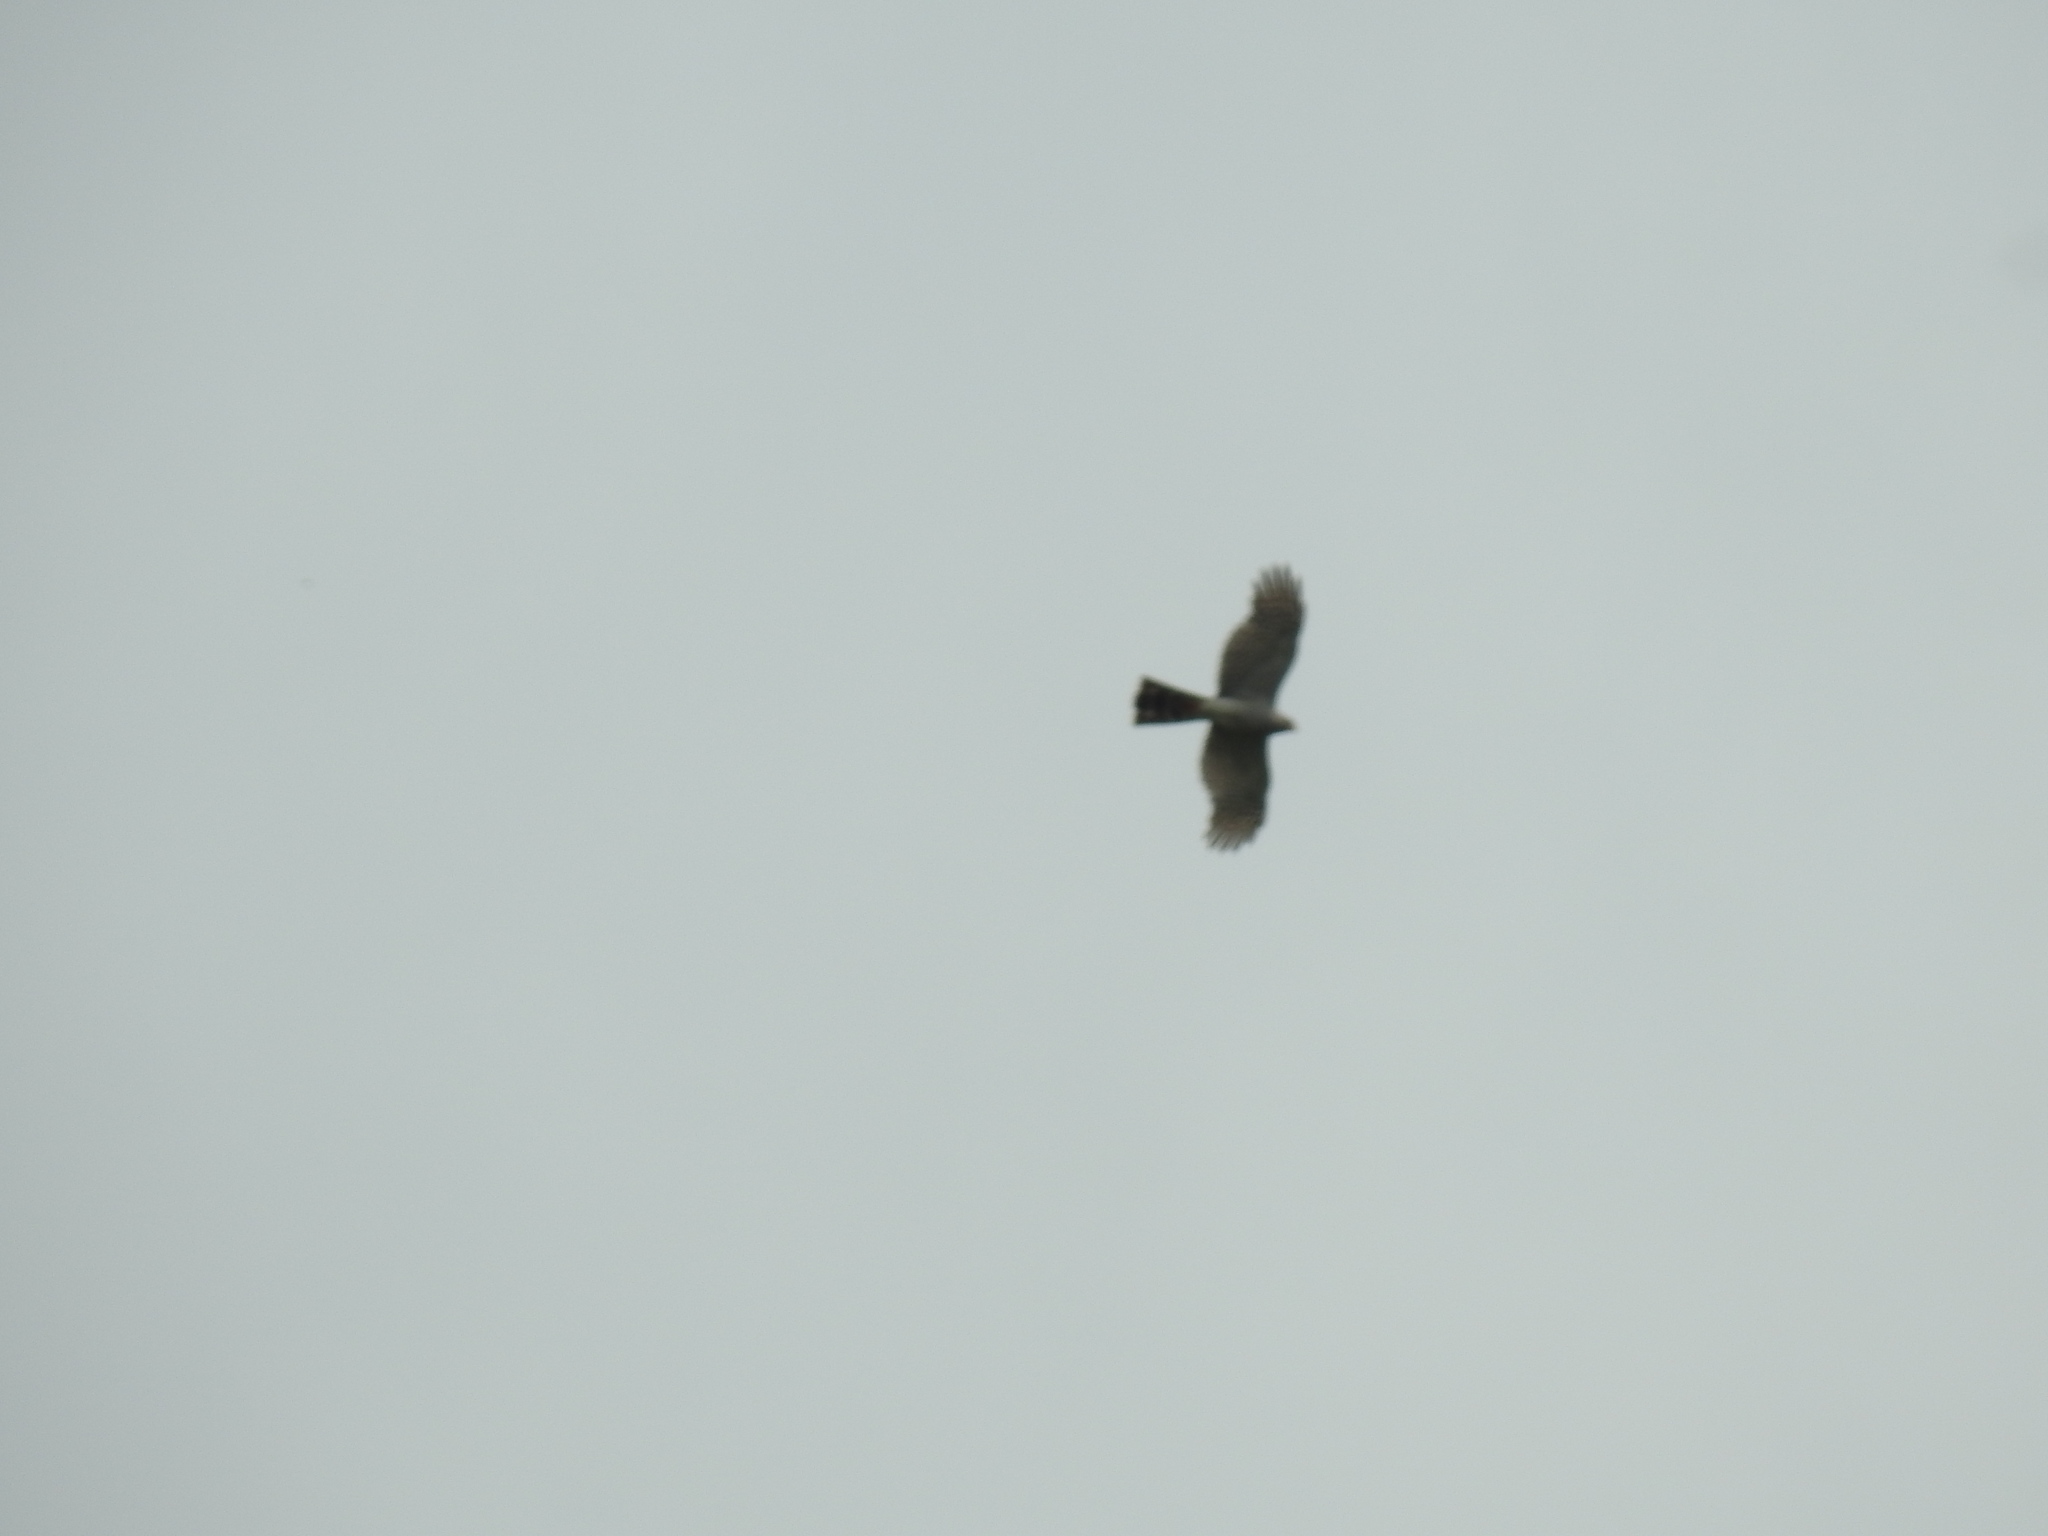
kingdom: Animalia
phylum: Chordata
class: Aves
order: Accipitriformes
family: Accipitridae
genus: Accipiter
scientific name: Accipiter ovampensis
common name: Ovambo sparrowhawk
